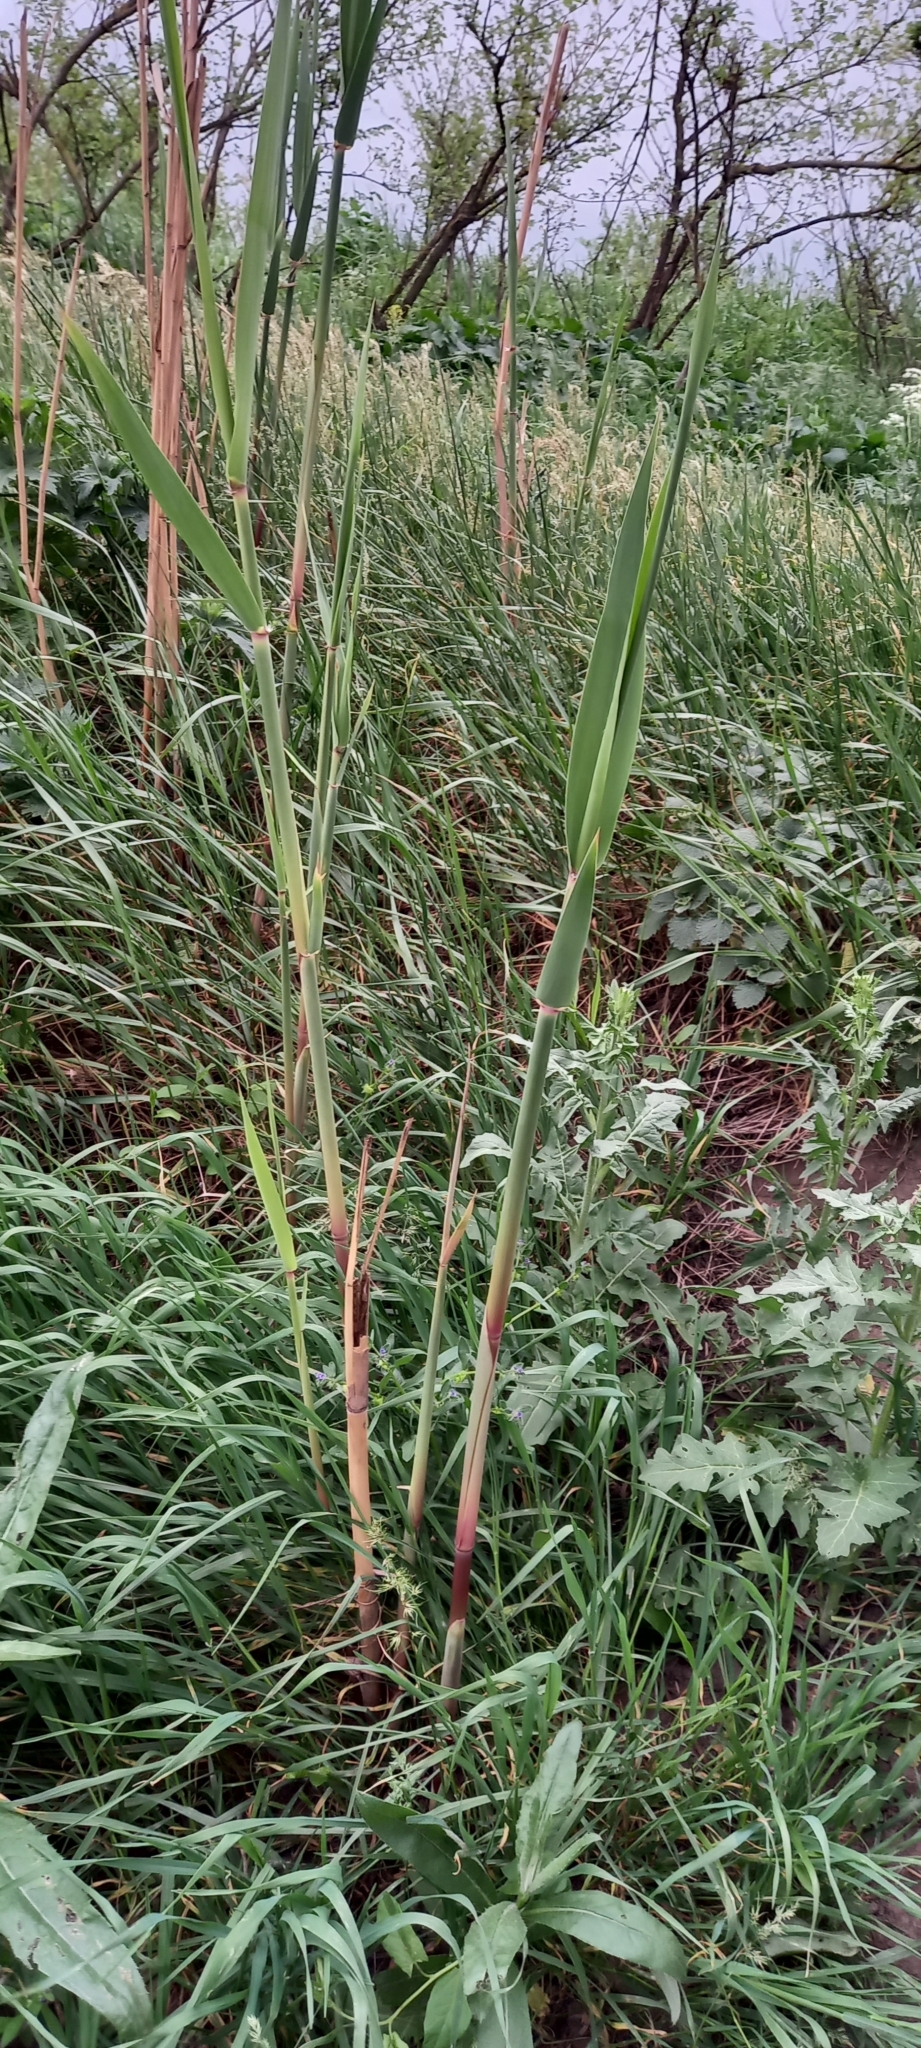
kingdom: Plantae
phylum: Tracheophyta
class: Liliopsida
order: Poales
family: Poaceae
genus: Phragmites
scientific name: Phragmites australis
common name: Common reed
